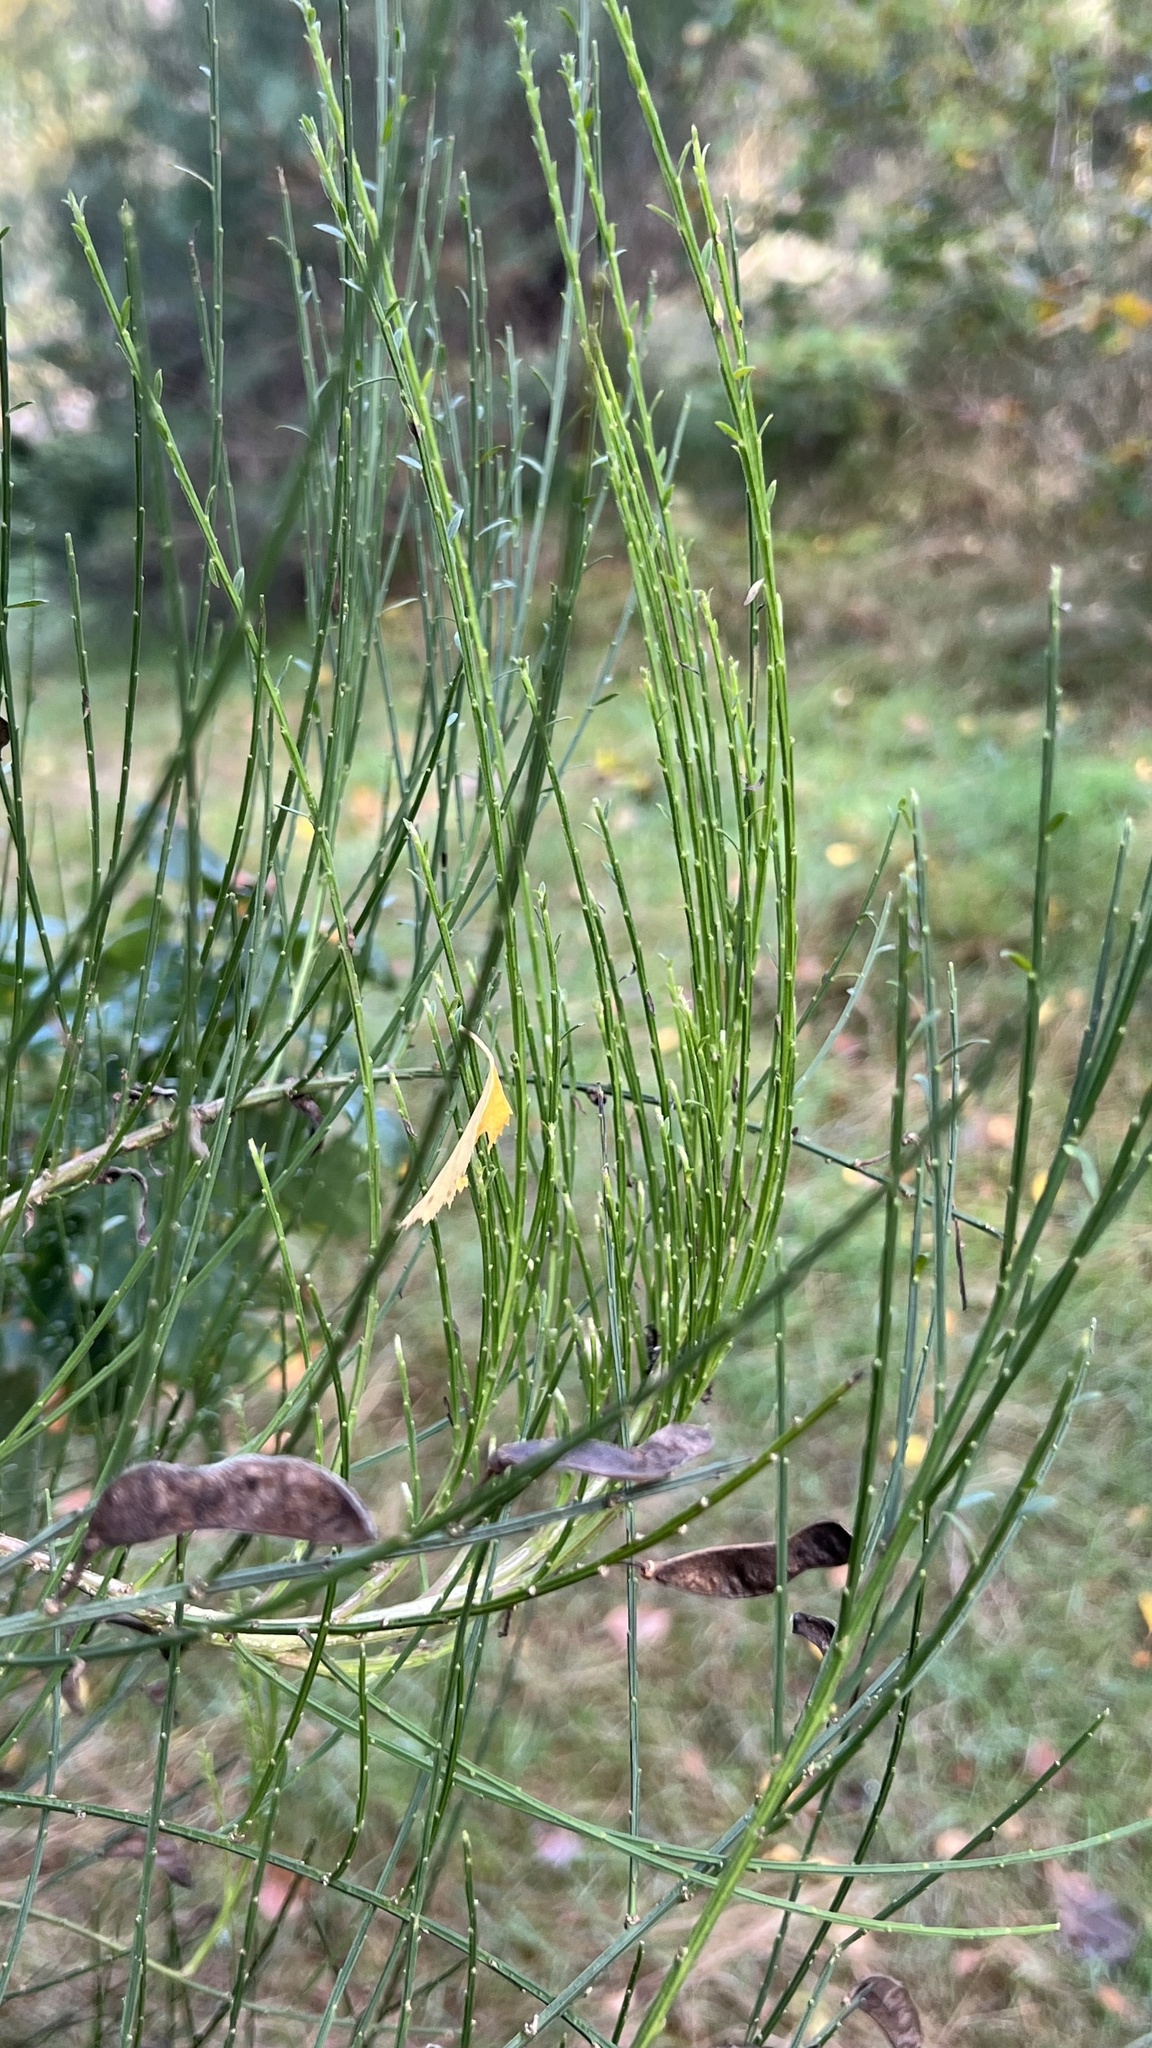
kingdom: Plantae
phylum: Tracheophyta
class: Magnoliopsida
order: Fabales
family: Fabaceae
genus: Cytisus
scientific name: Cytisus scoparius
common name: Scotch broom
